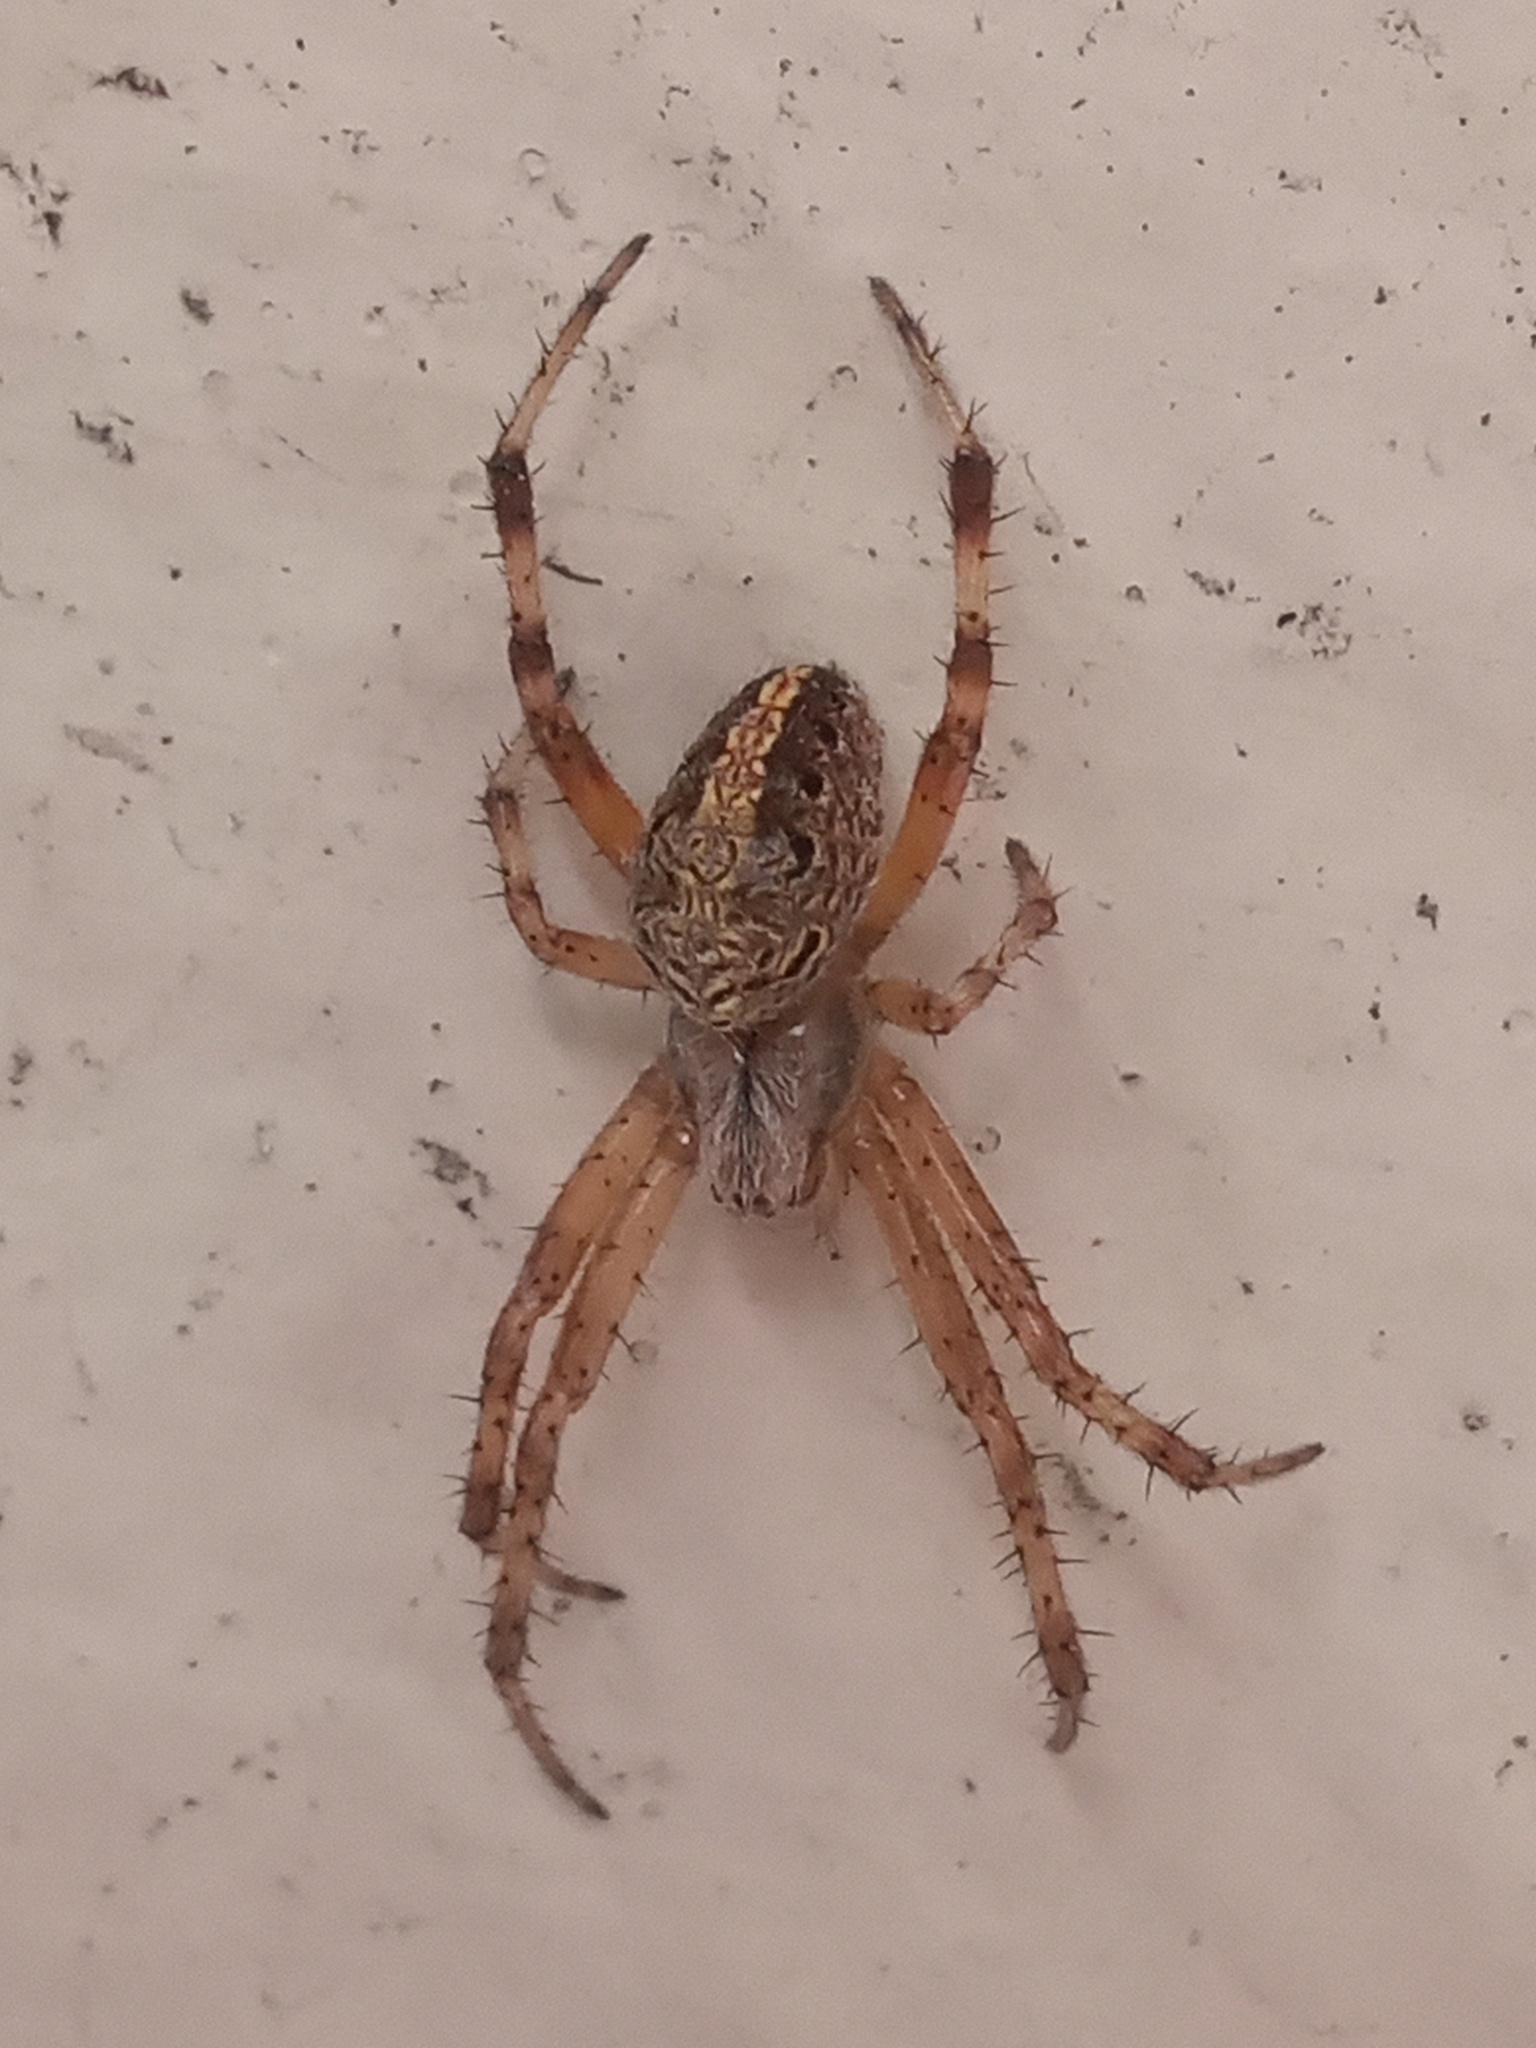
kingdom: Animalia
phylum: Arthropoda
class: Arachnida
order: Araneae
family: Araneidae
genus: Neoscona
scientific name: Neoscona oaxacensis
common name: Orb weavers
